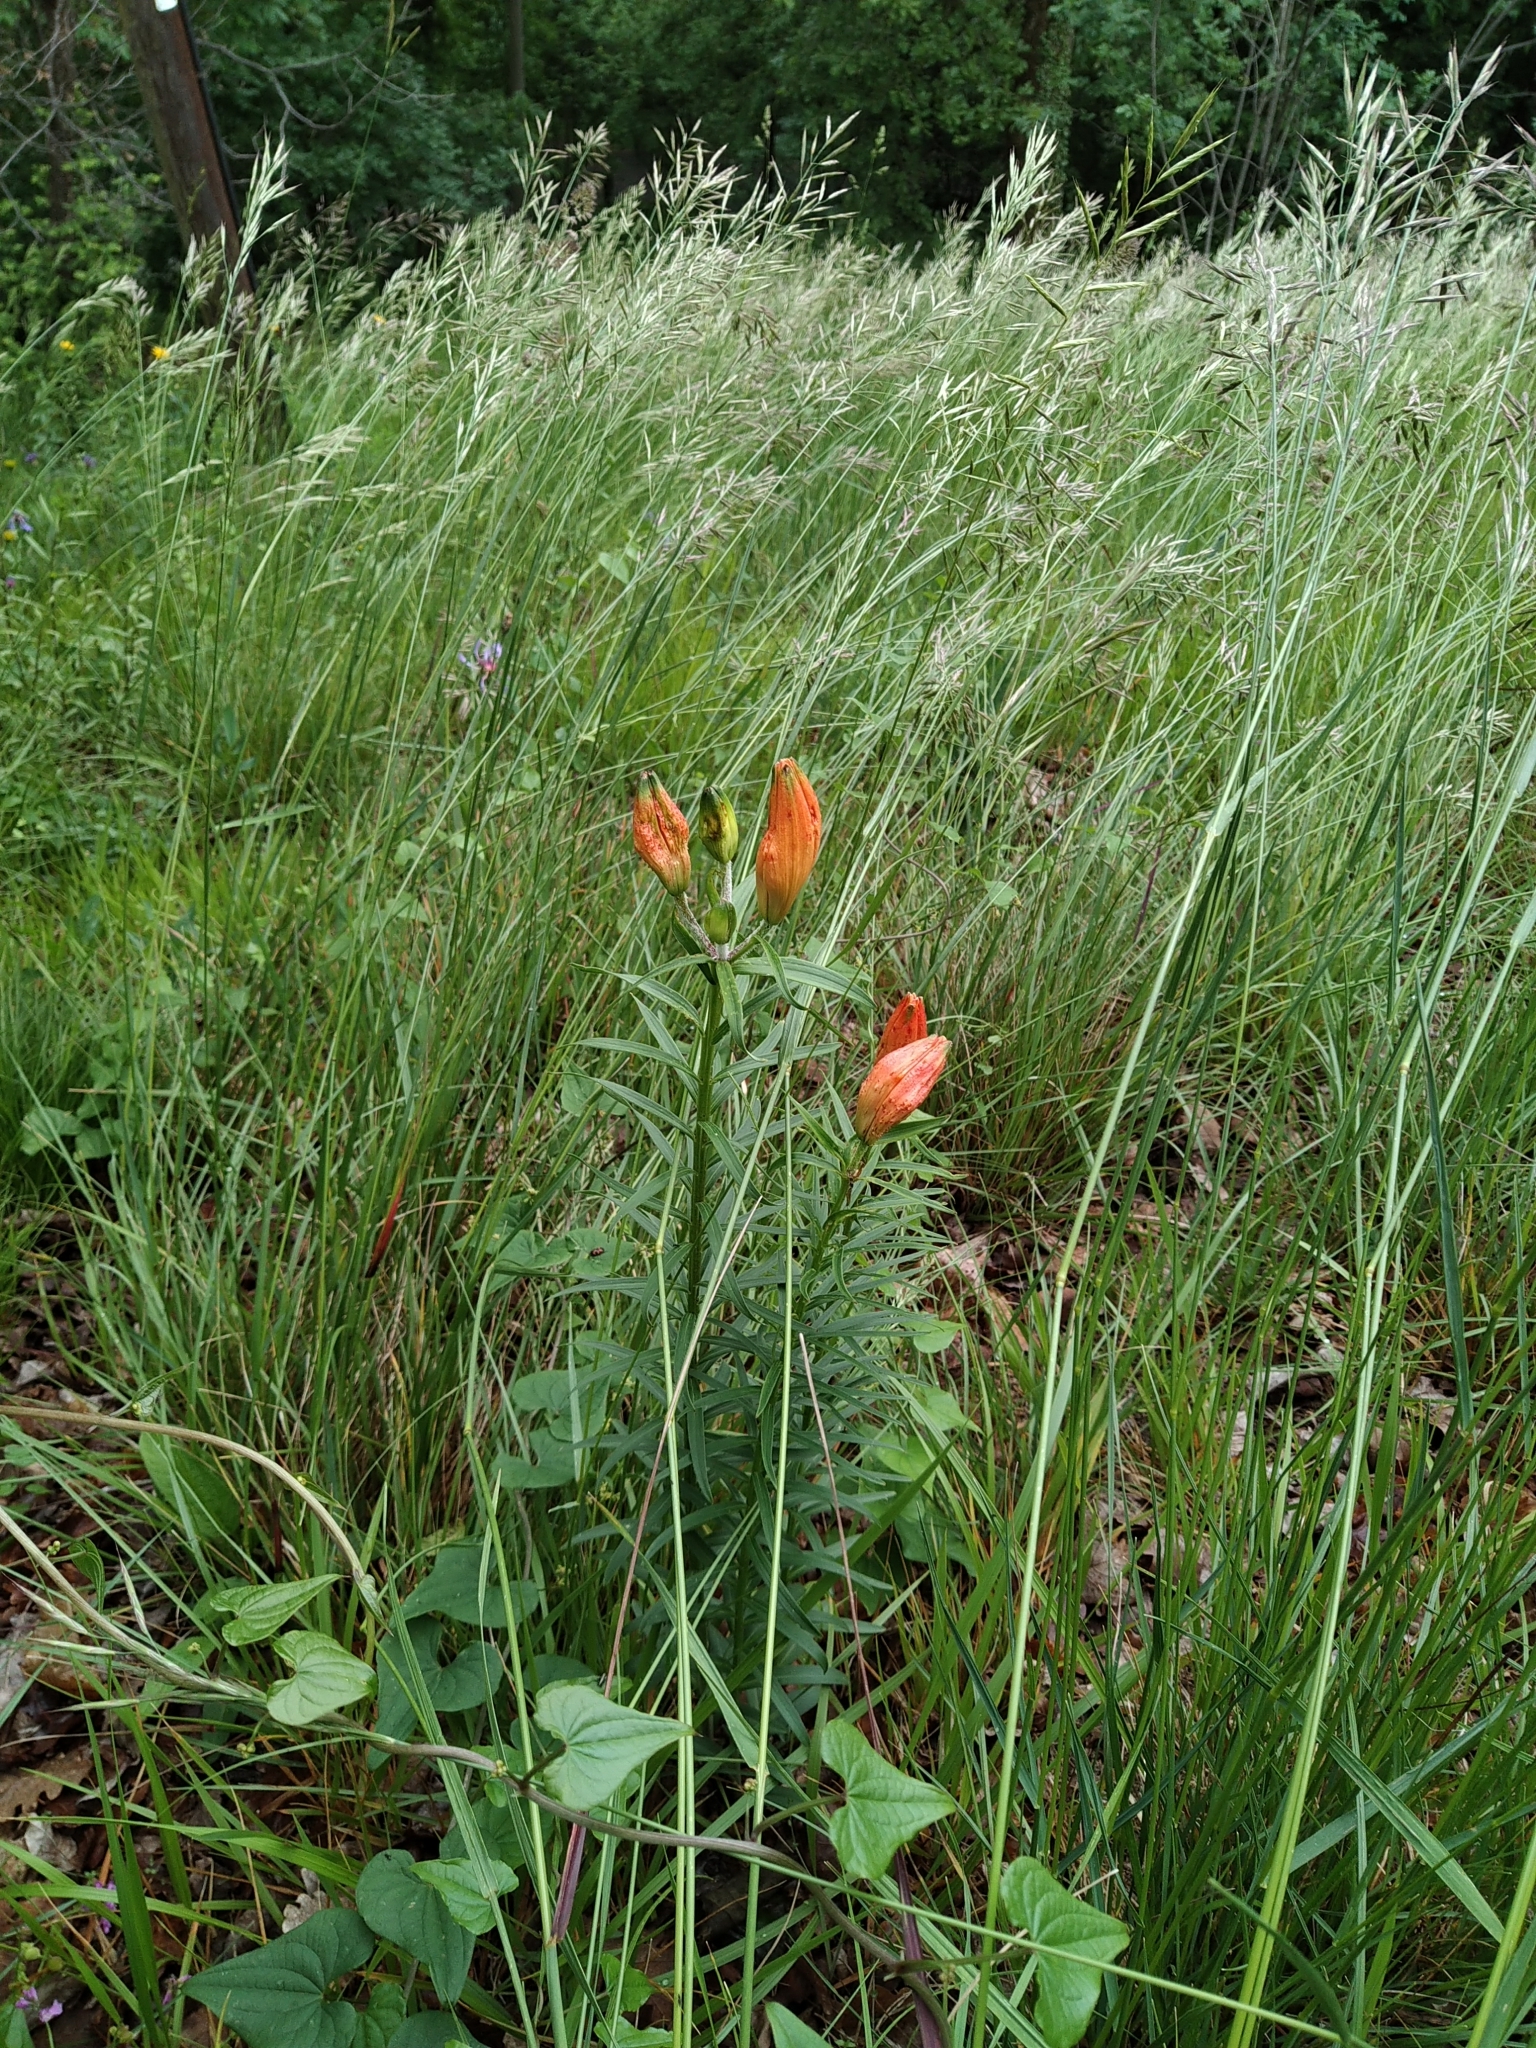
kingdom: Plantae
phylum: Tracheophyta
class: Liliopsida
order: Liliales
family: Liliaceae
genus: Lilium
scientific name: Lilium bulbiferum
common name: Orange lily
